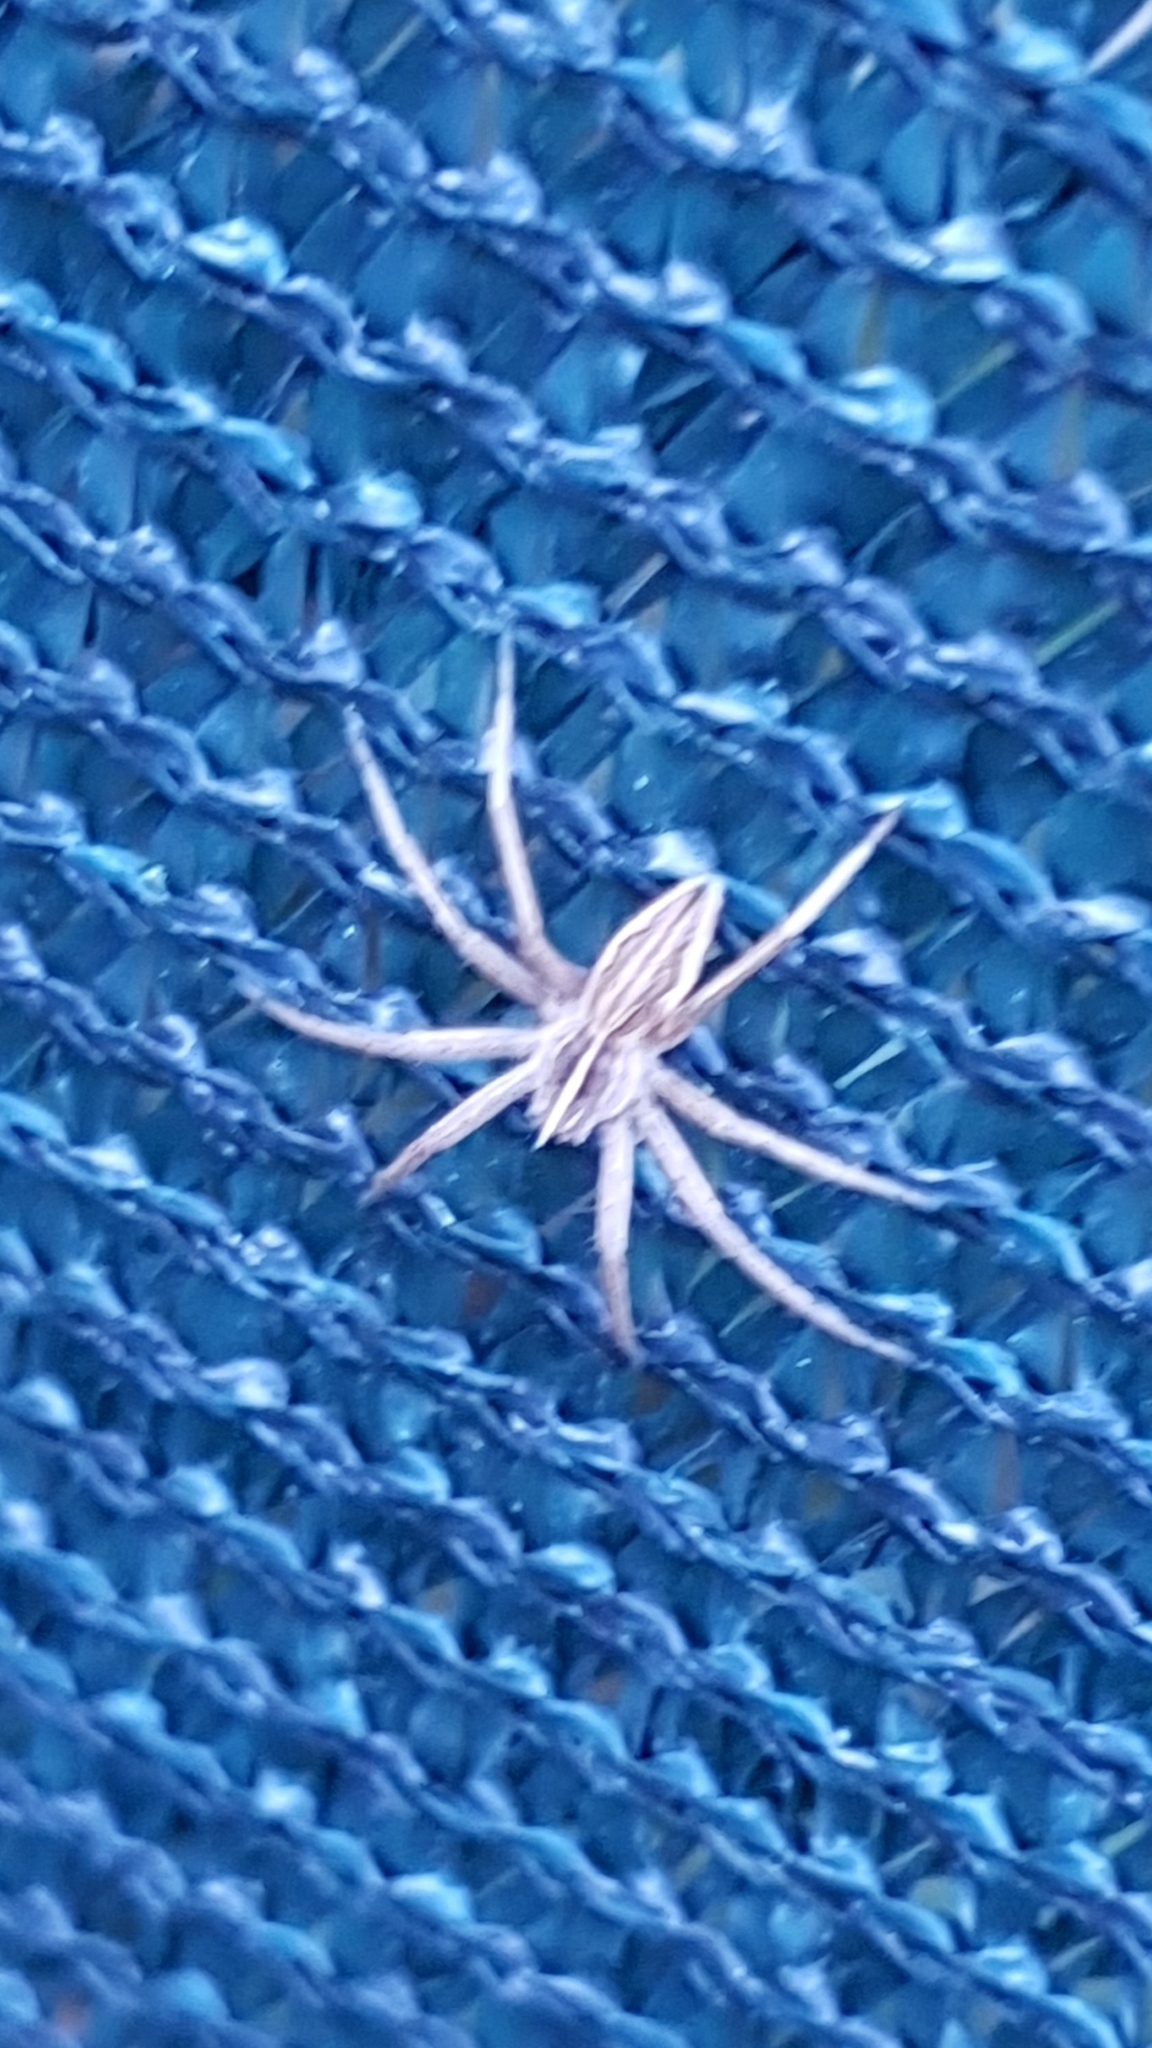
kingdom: Animalia
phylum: Arthropoda
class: Arachnida
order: Araneae
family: Pisauridae
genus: Pisaura
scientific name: Pisaura mirabilis
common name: Tent spider
